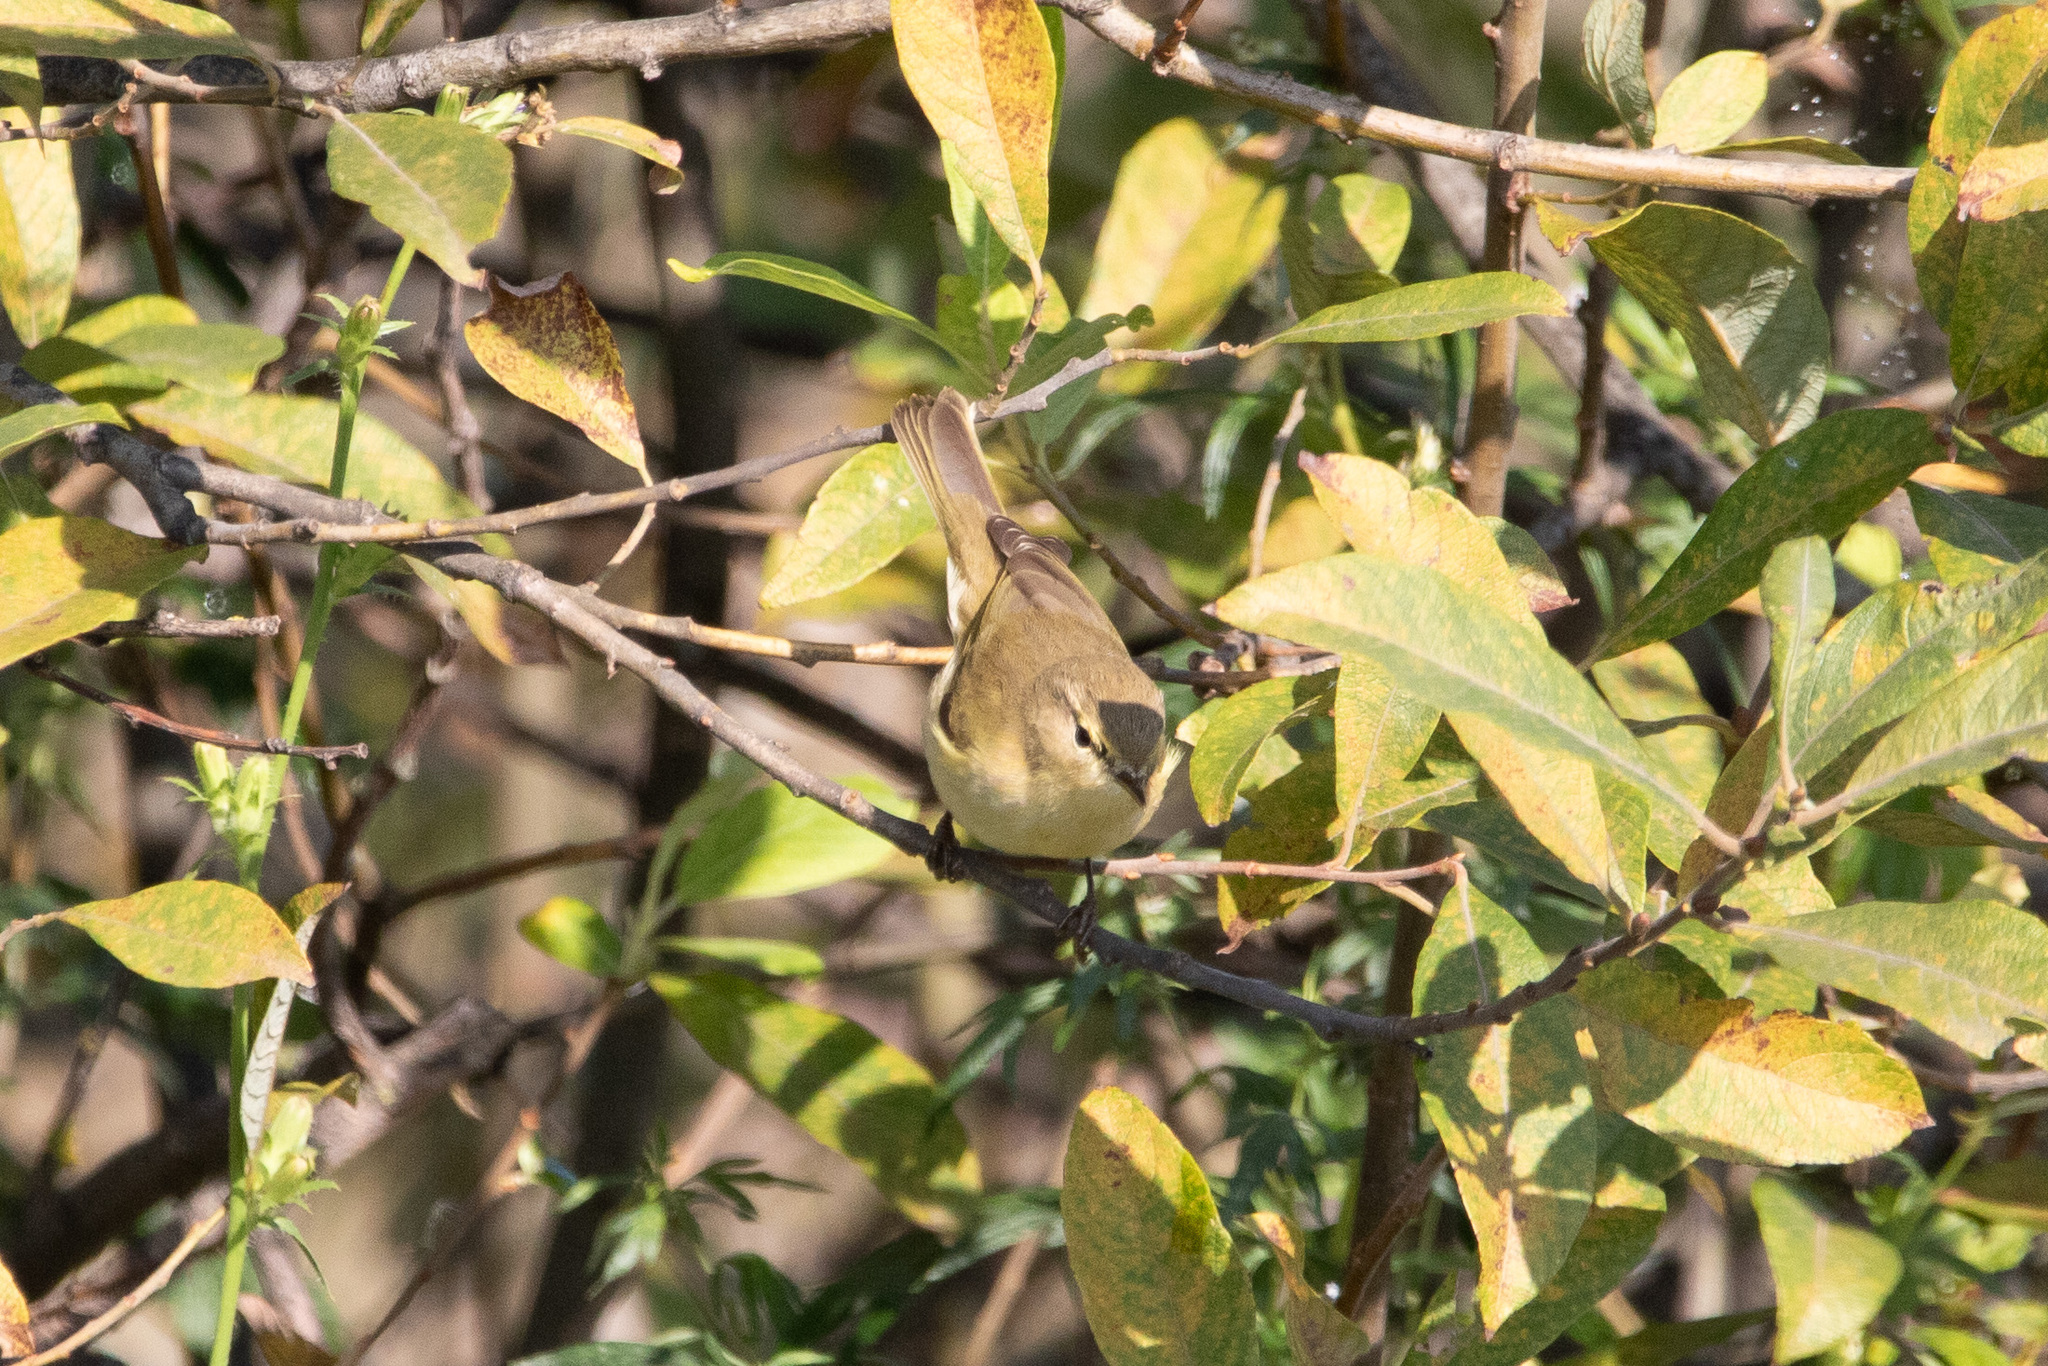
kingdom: Animalia
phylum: Chordata
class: Aves
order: Passeriformes
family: Phylloscopidae
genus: Phylloscopus
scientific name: Phylloscopus collybita
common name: Common chiffchaff
